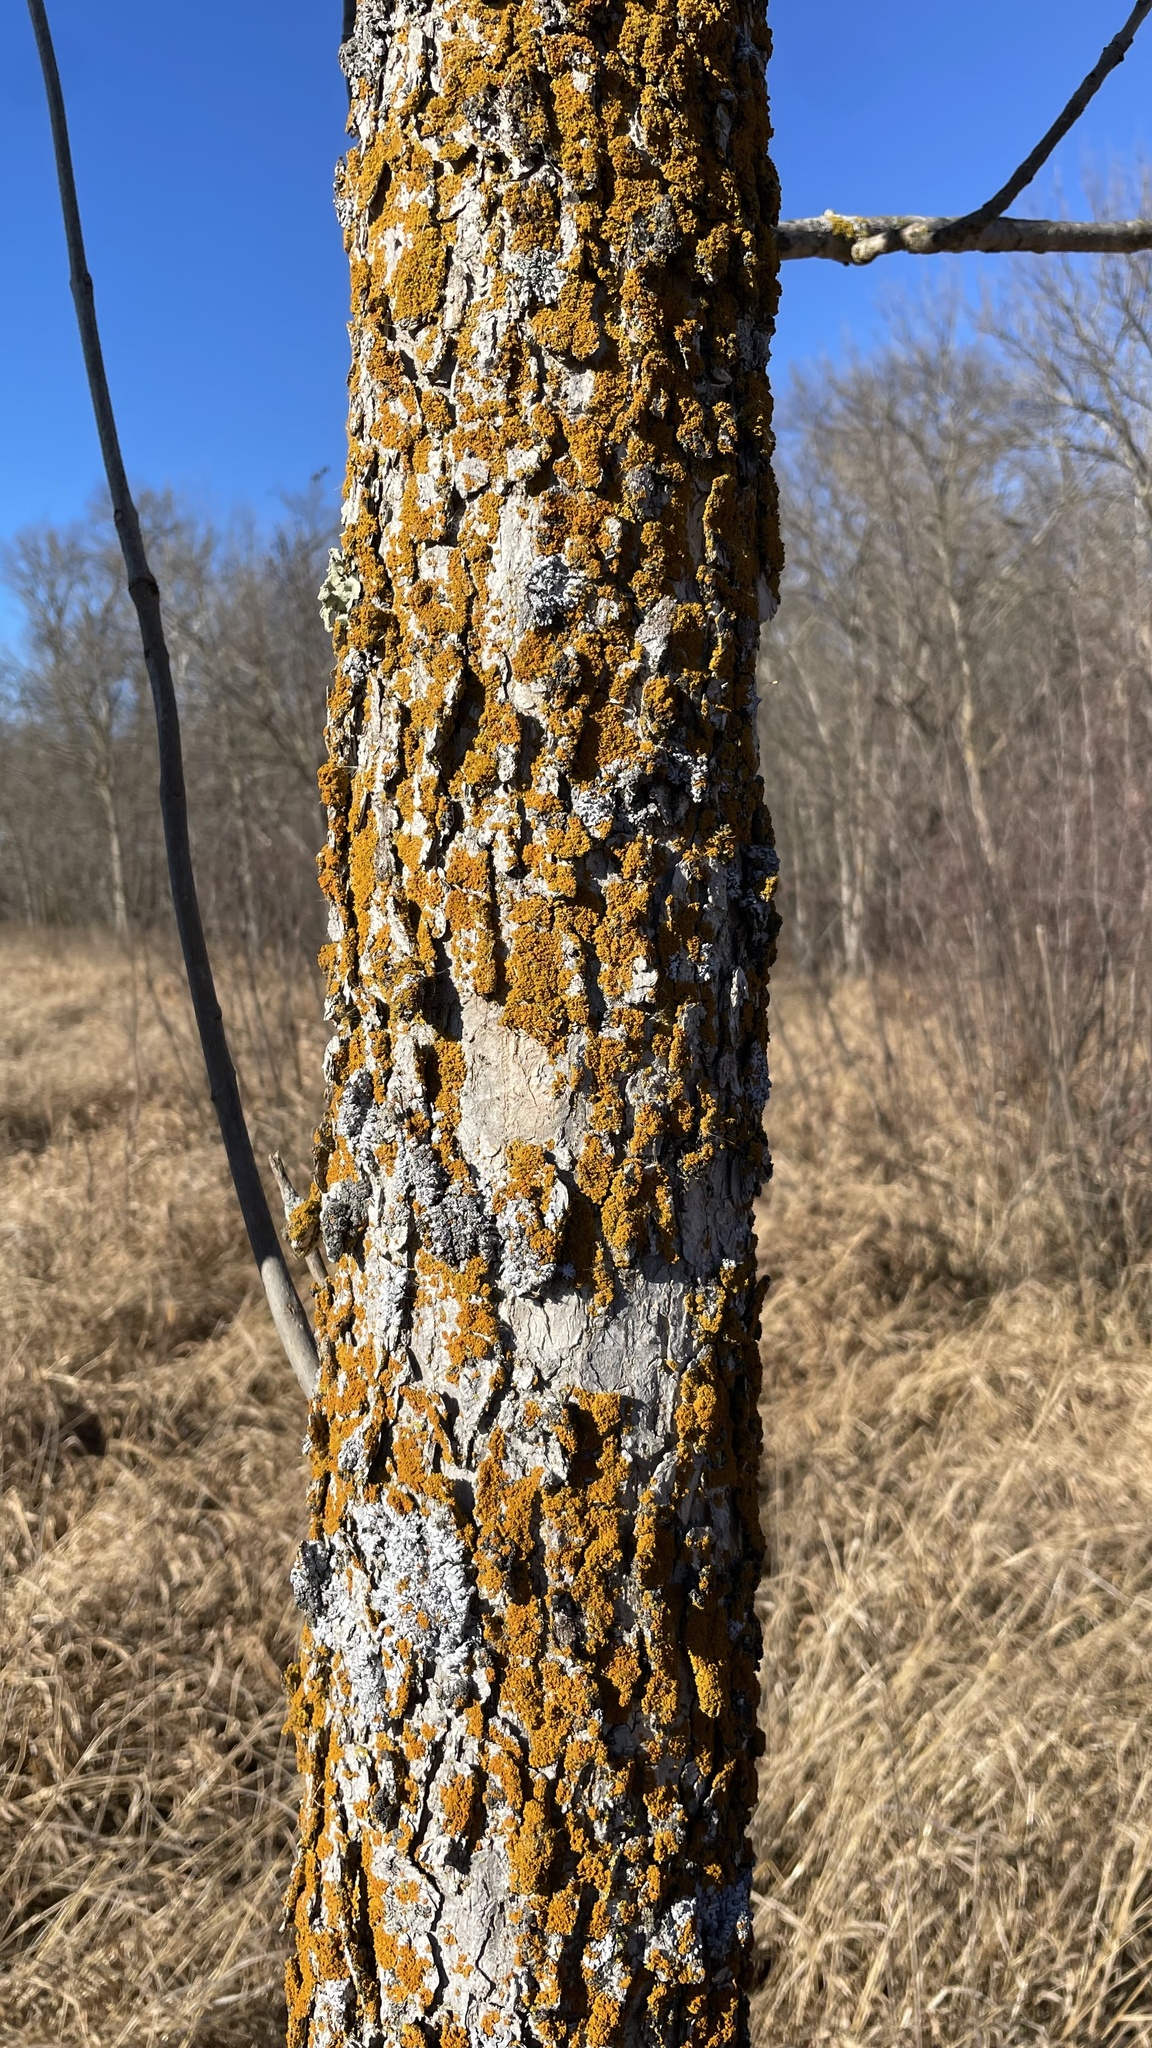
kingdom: Plantae
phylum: Tracheophyta
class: Magnoliopsida
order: Lamiales
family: Oleaceae
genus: Fraxinus
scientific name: Fraxinus nigra
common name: Black ash
